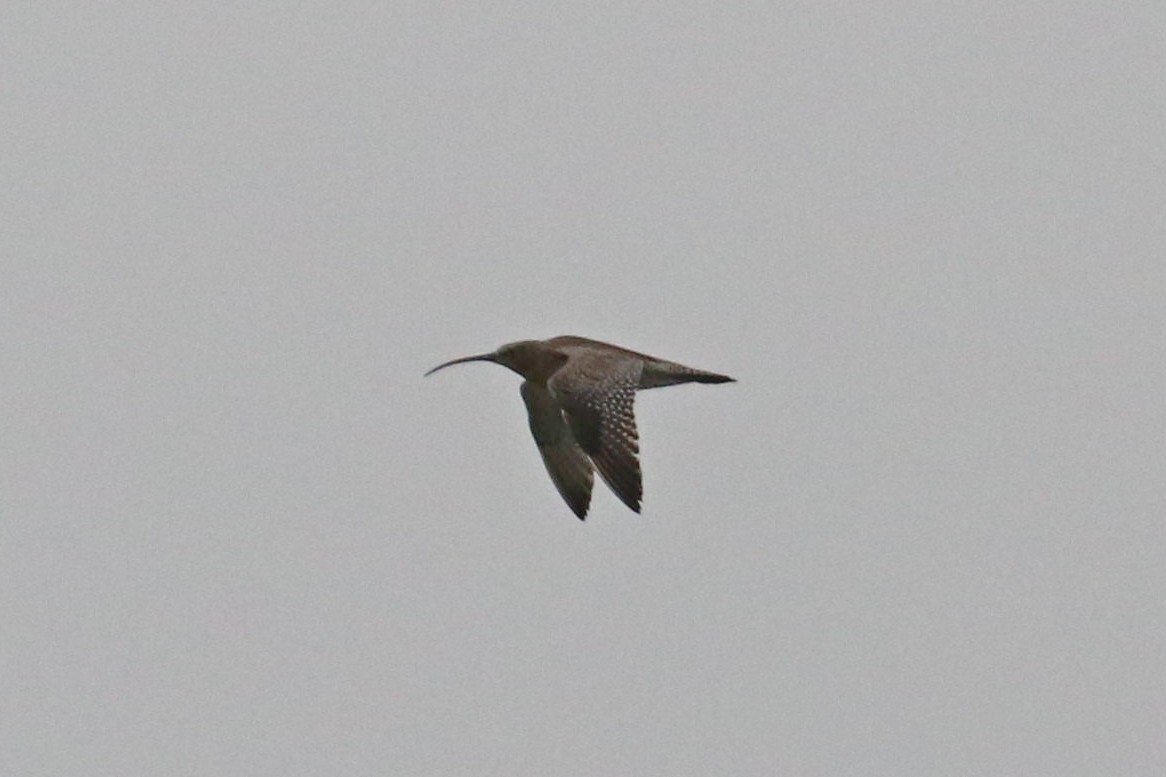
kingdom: Animalia
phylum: Chordata
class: Aves
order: Charadriiformes
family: Scolopacidae
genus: Numenius
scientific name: Numenius arquata
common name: Eurasian curlew
